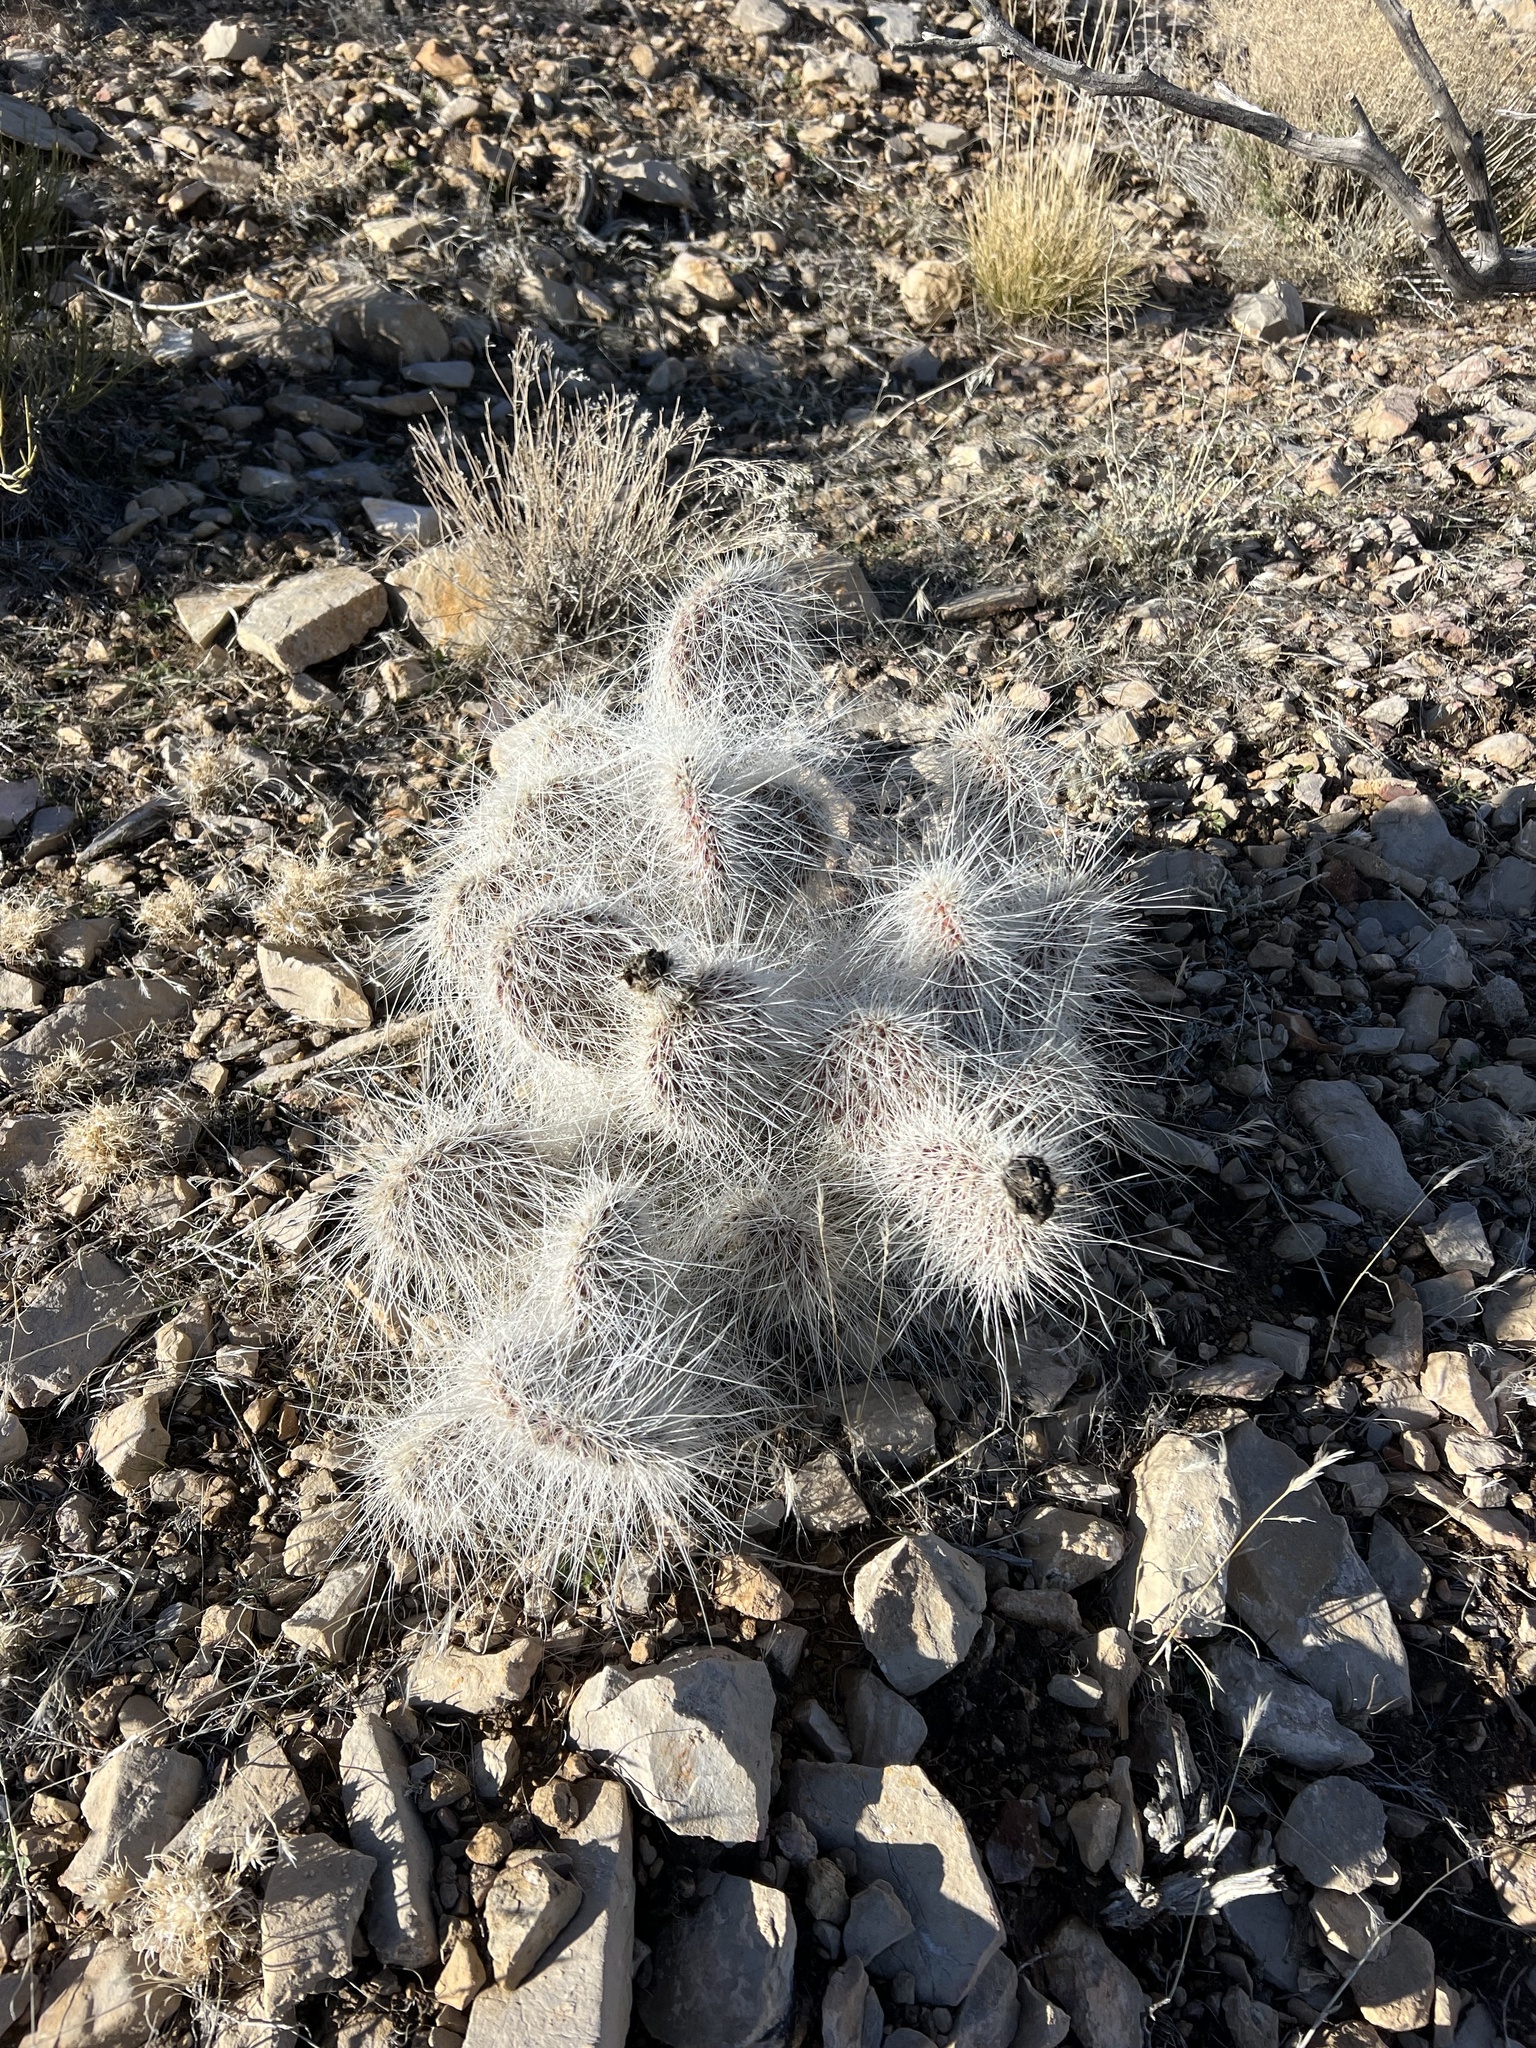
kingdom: Plantae
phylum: Tracheophyta
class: Magnoliopsida
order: Caryophyllales
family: Cactaceae
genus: Opuntia
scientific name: Opuntia polyacantha
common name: Plains prickly-pear
